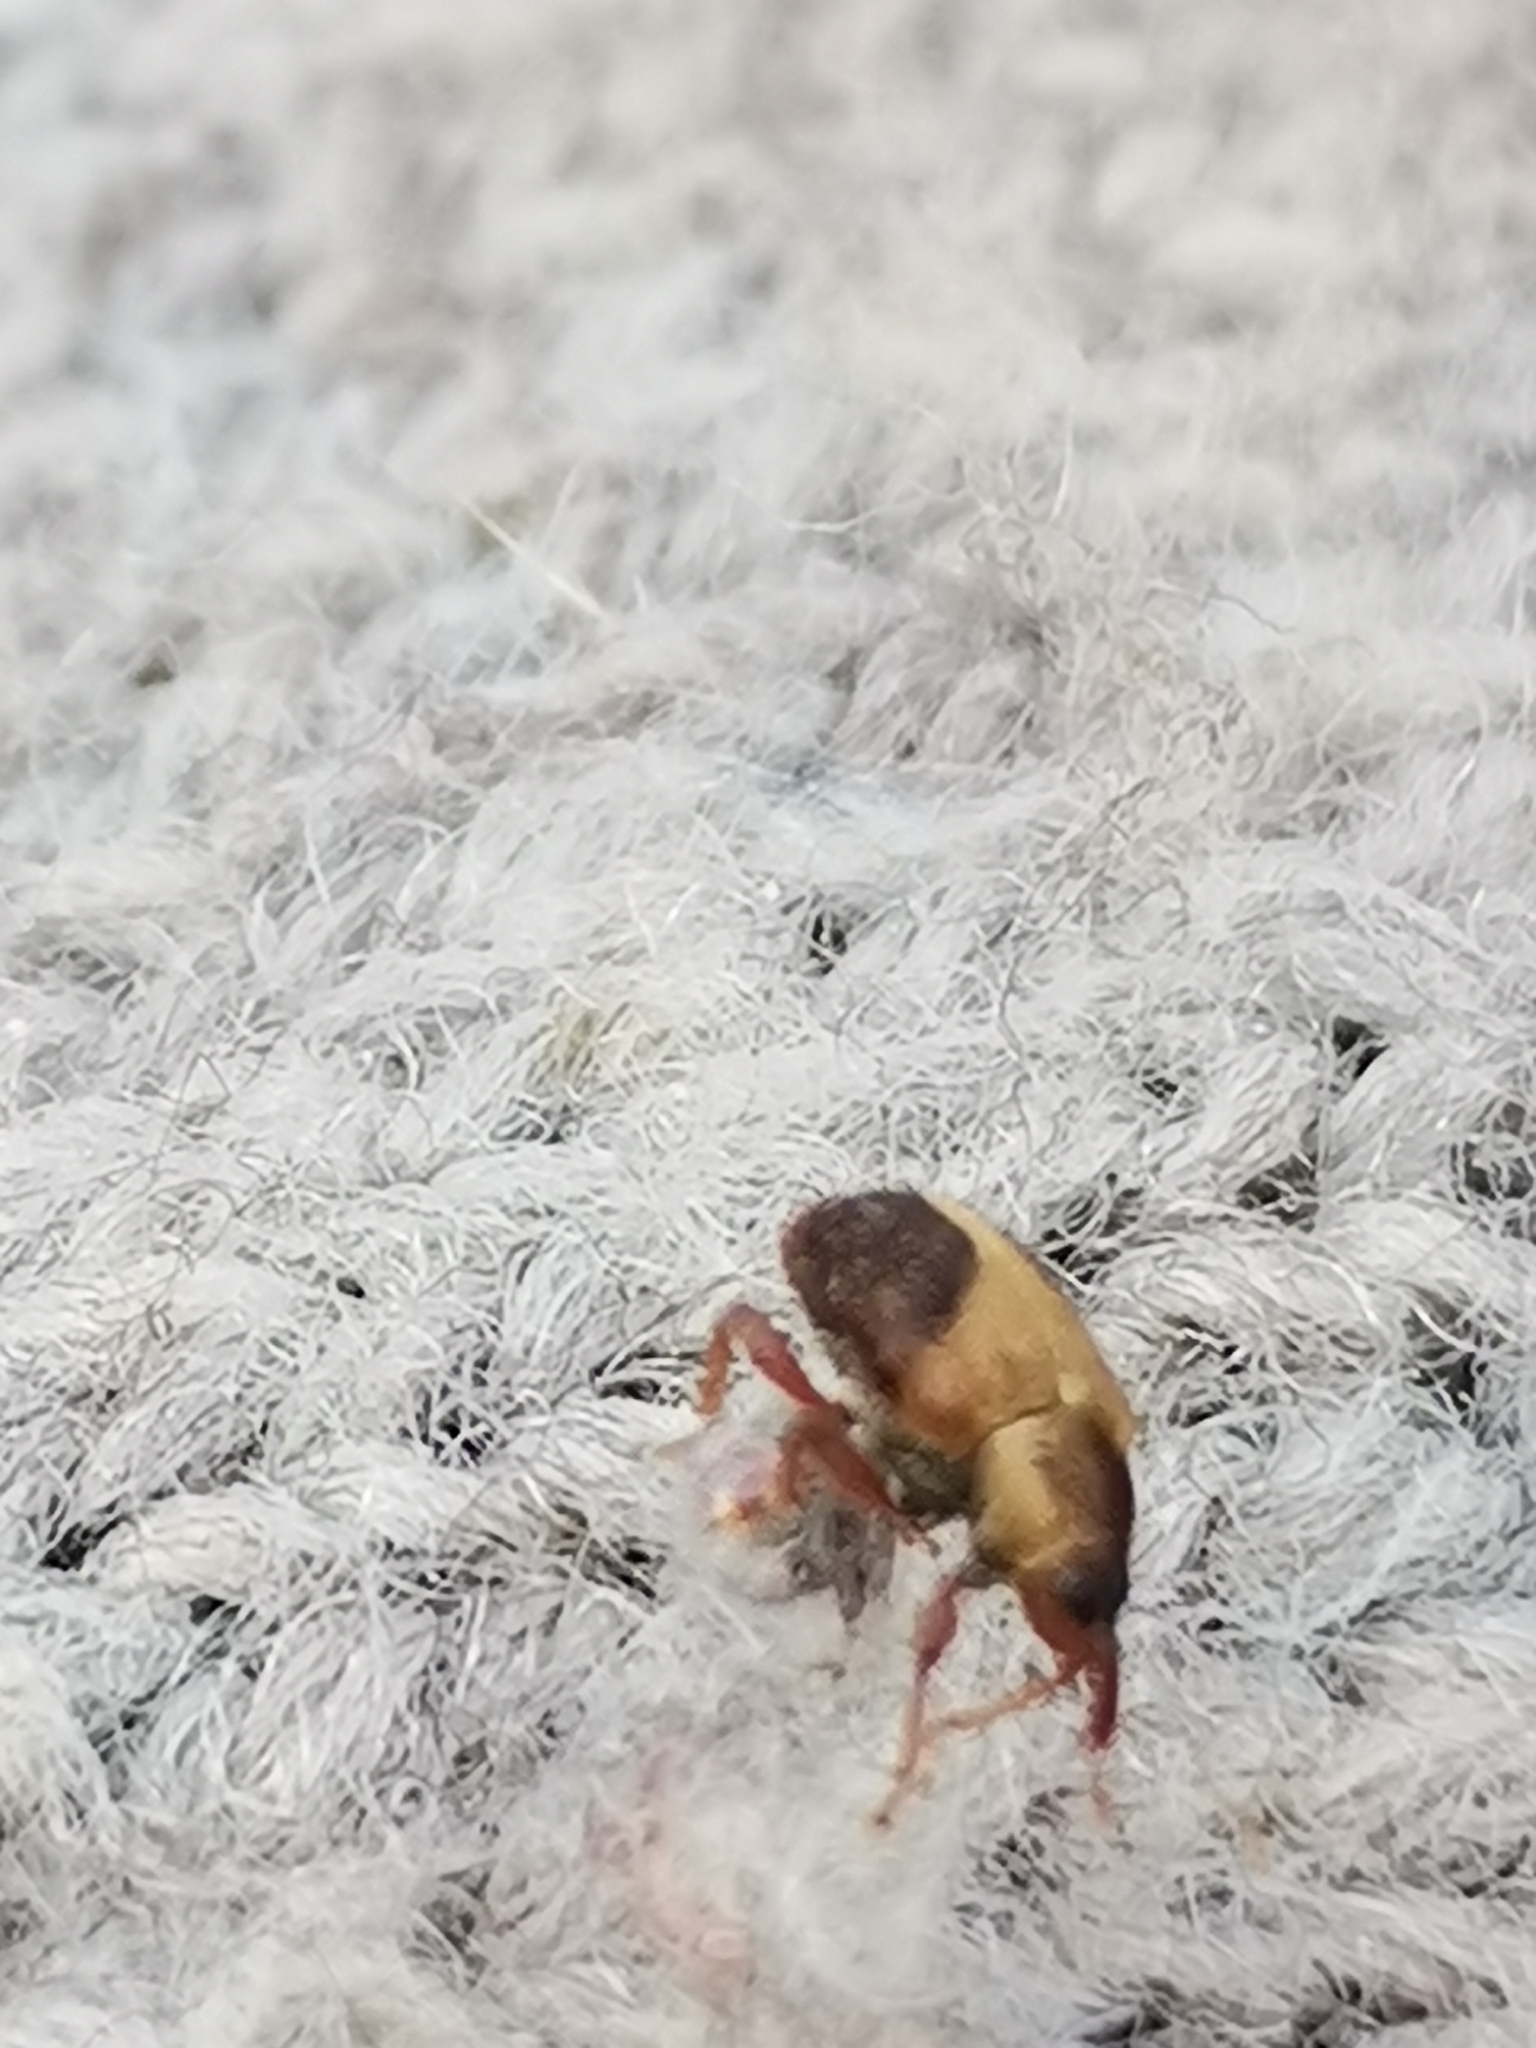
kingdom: Animalia
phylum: Arthropoda
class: Insecta
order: Coleoptera
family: Curculionidae
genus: Lignyodes
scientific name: Lignyodes enucleator
